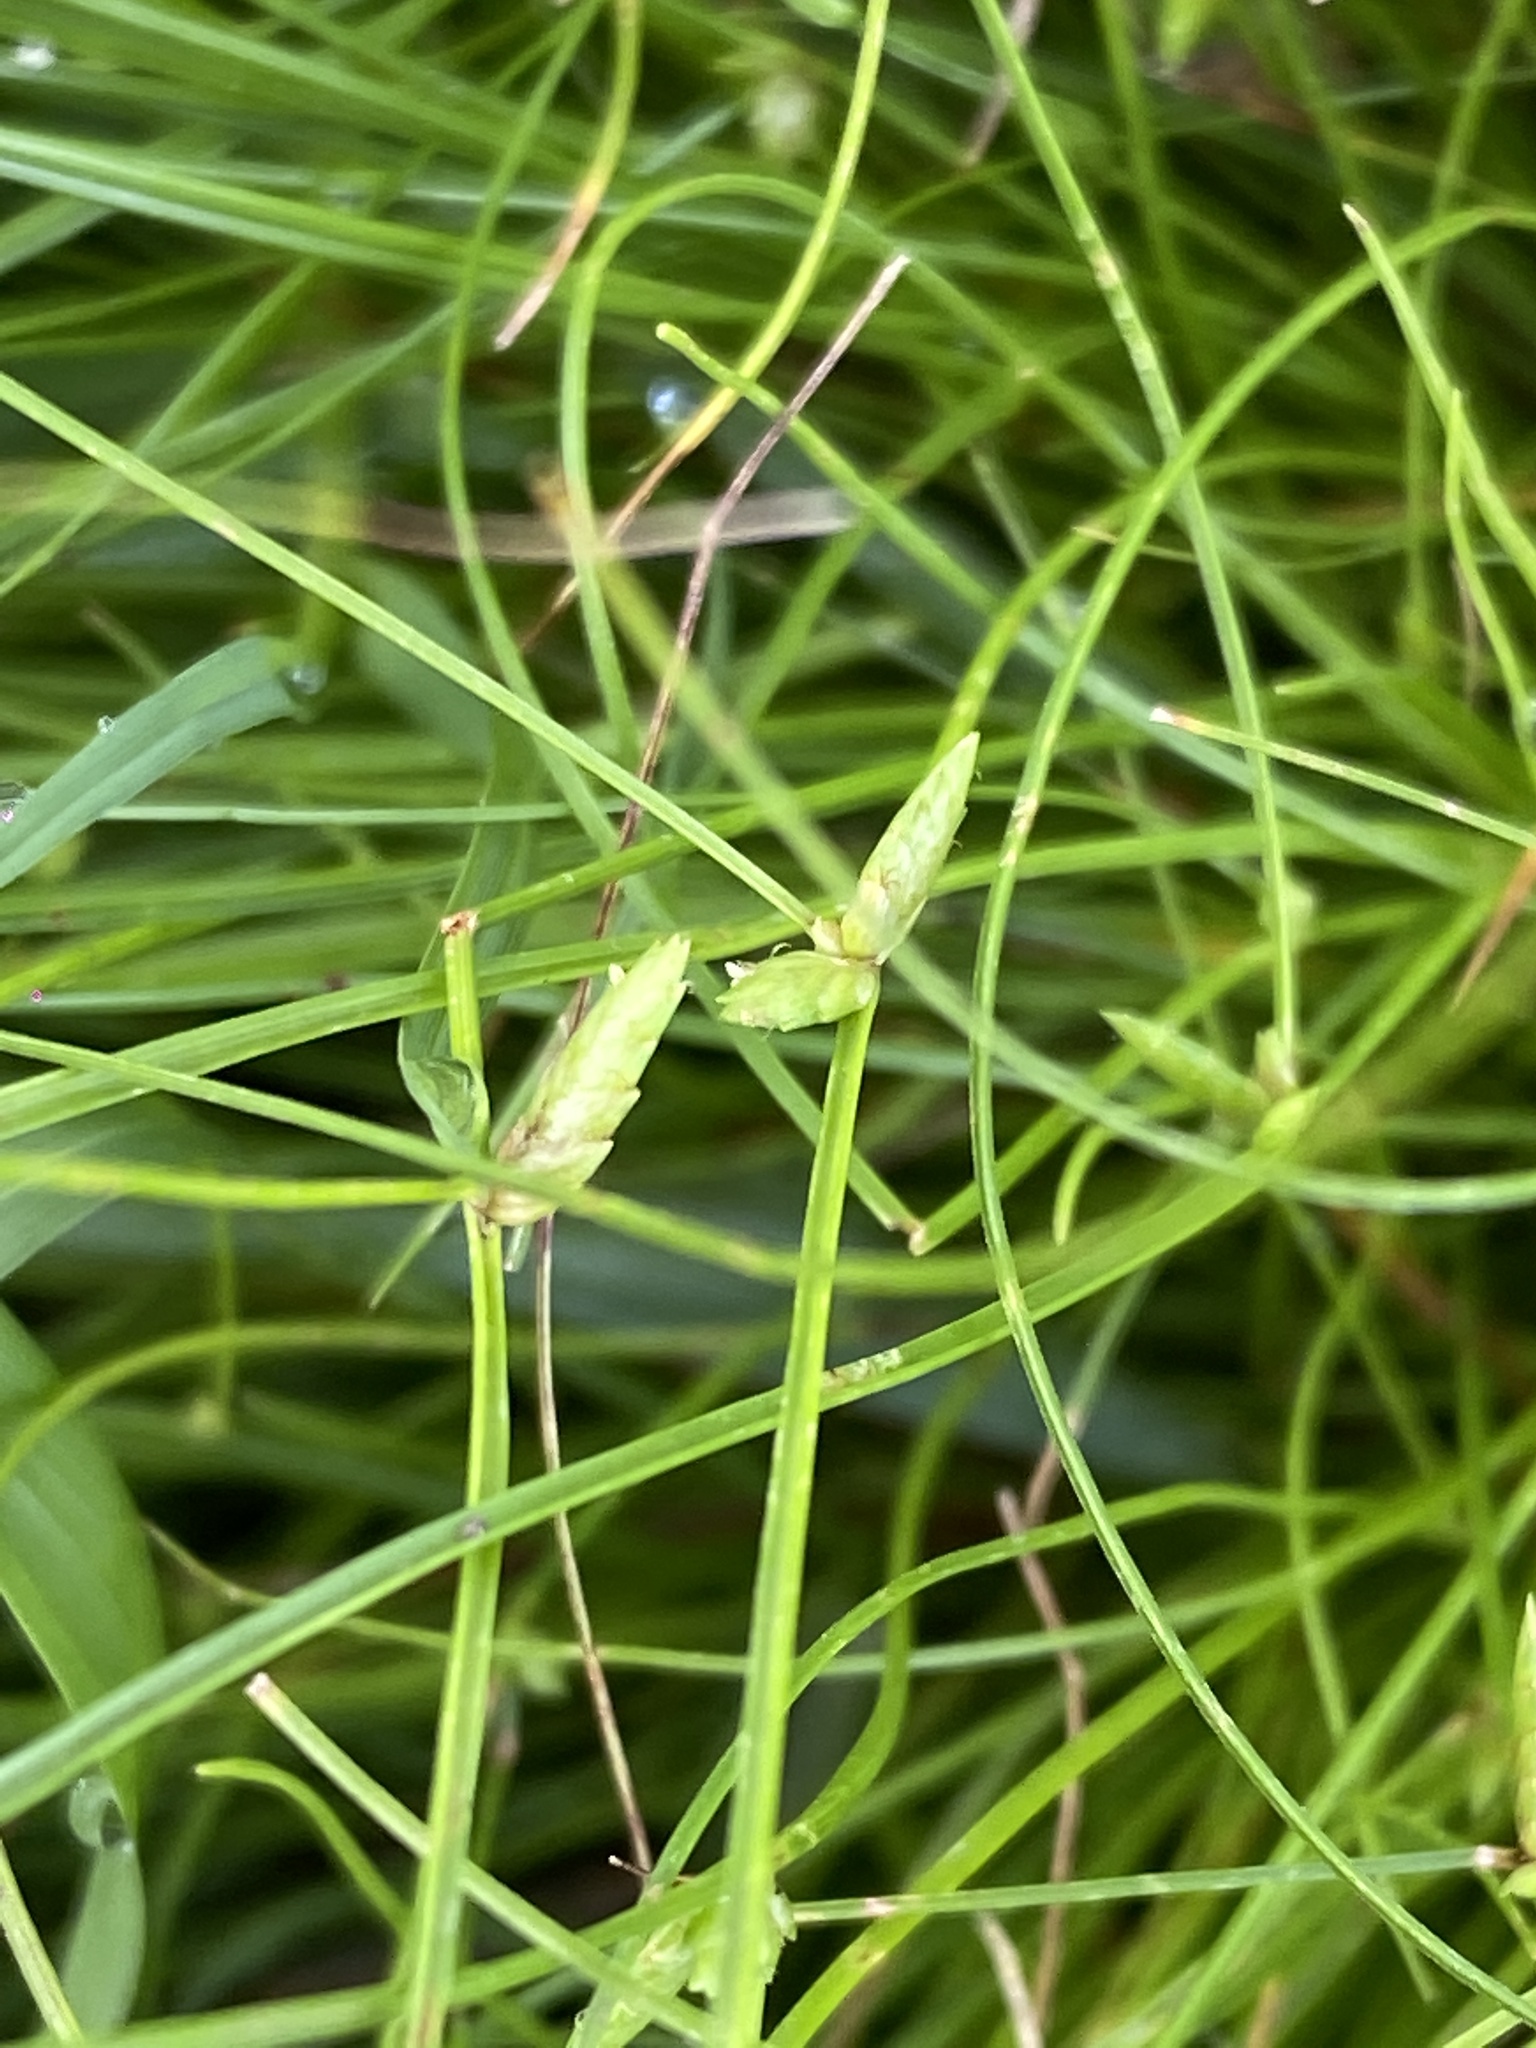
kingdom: Plantae
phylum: Tracheophyta
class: Liliopsida
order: Poales
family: Cyperaceae
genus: Cyperus
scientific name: Cyperus gracilis
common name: Slimjim flatsedge
